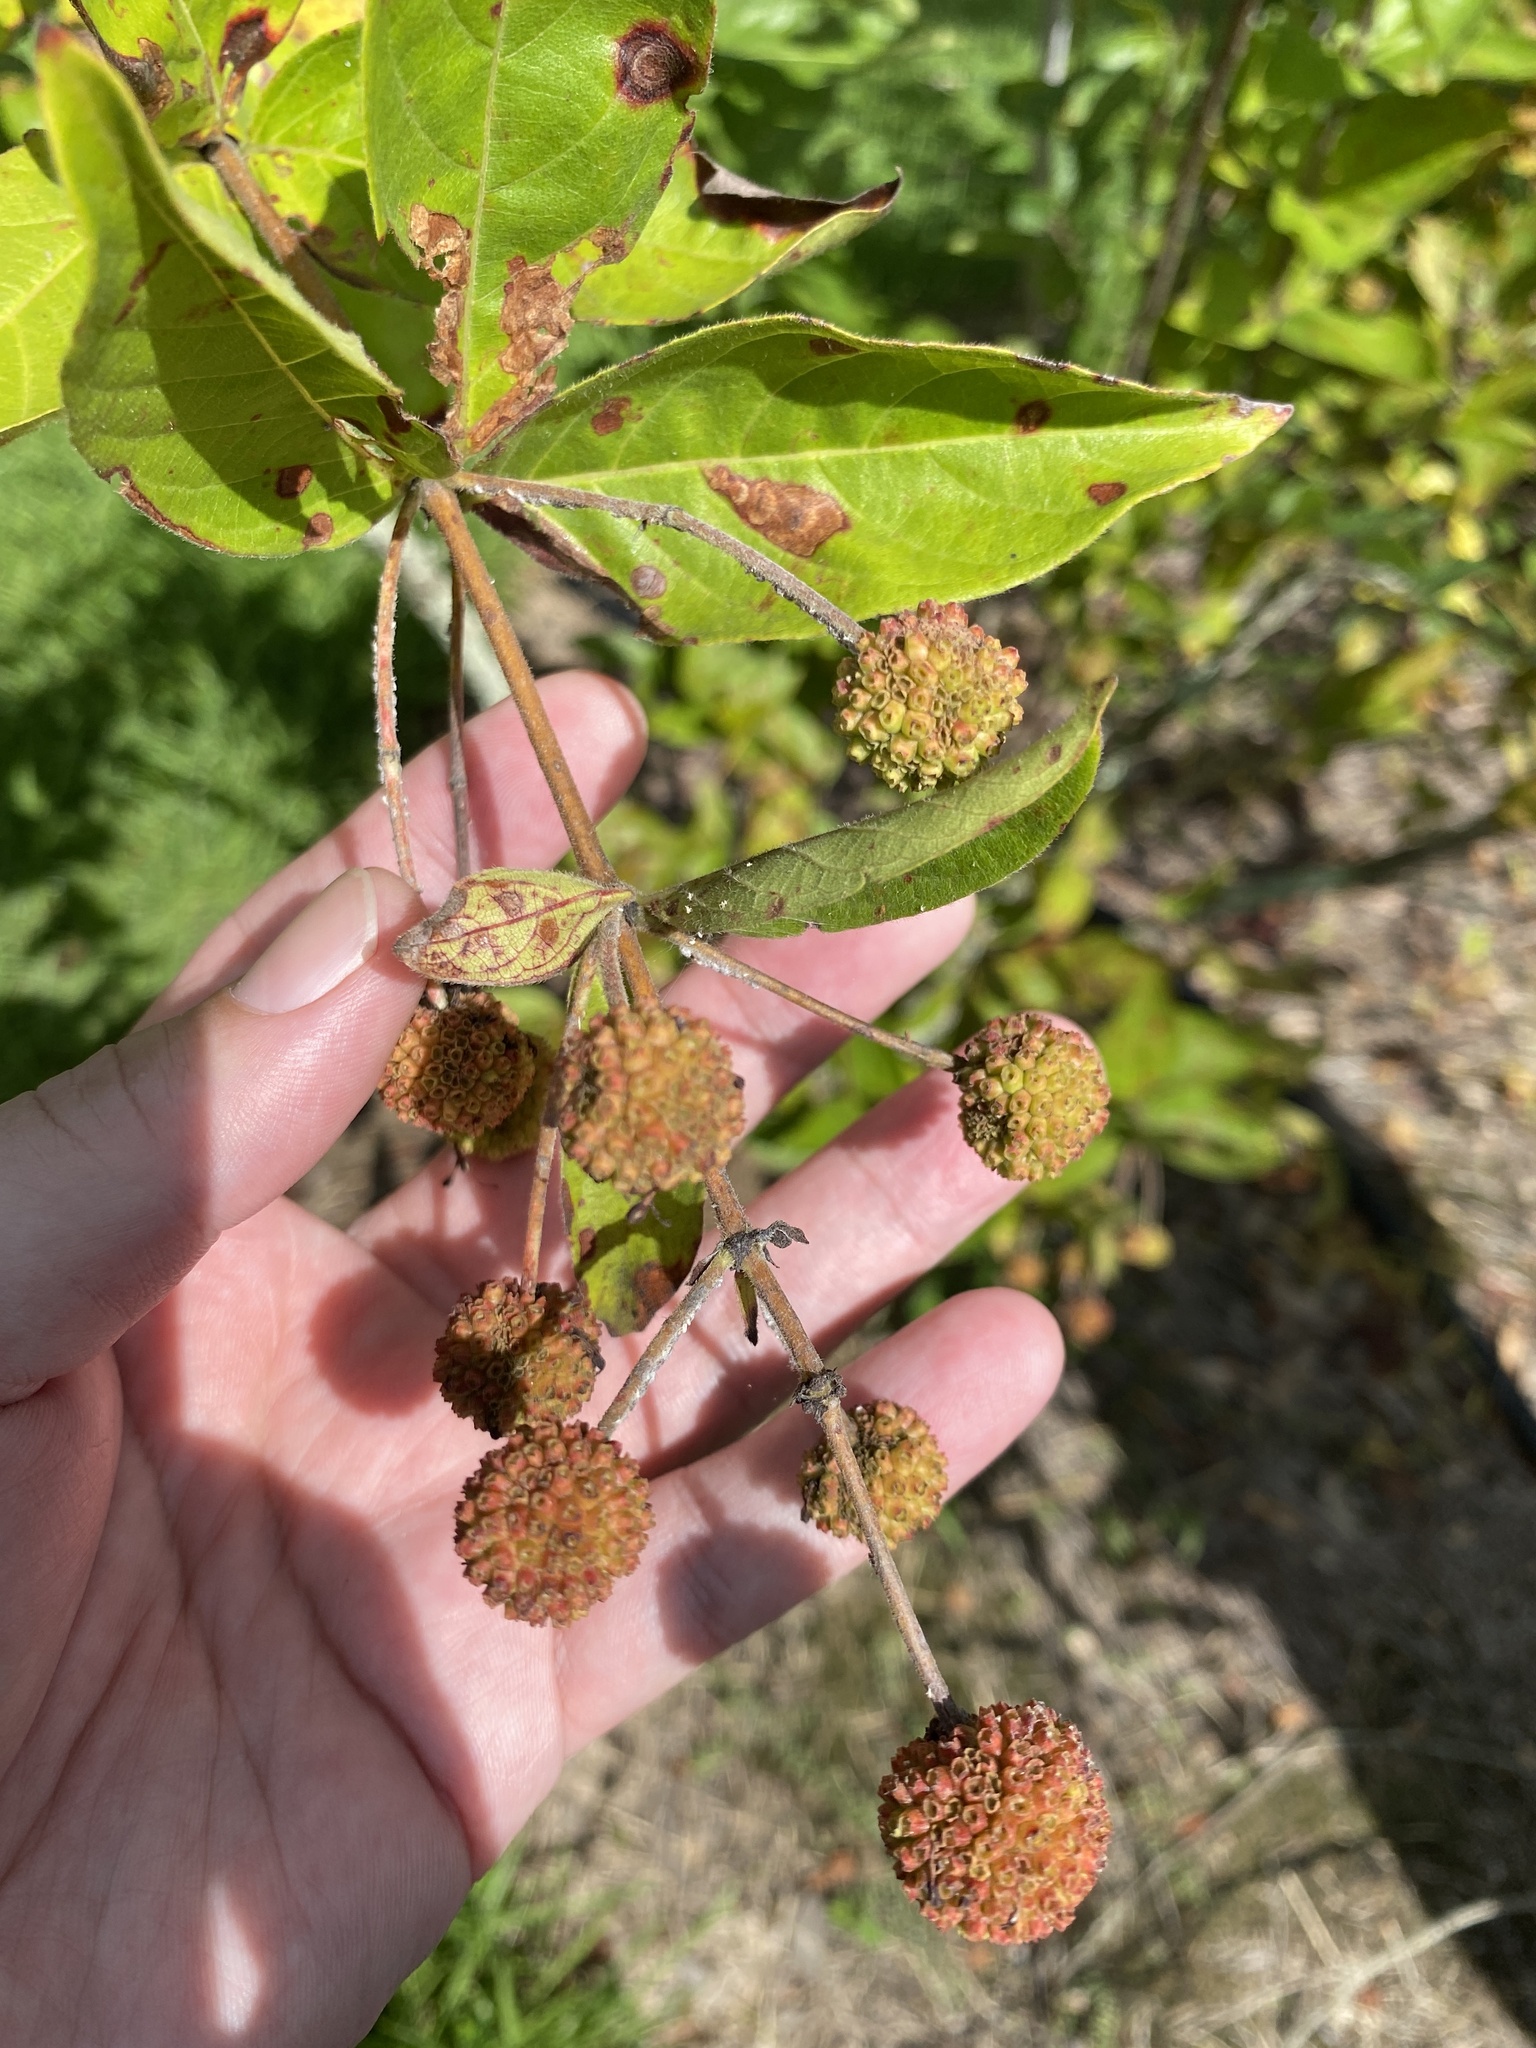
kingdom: Plantae
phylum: Tracheophyta
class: Magnoliopsida
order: Gentianales
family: Rubiaceae
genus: Cephalanthus
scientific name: Cephalanthus occidentalis
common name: Button-willow
